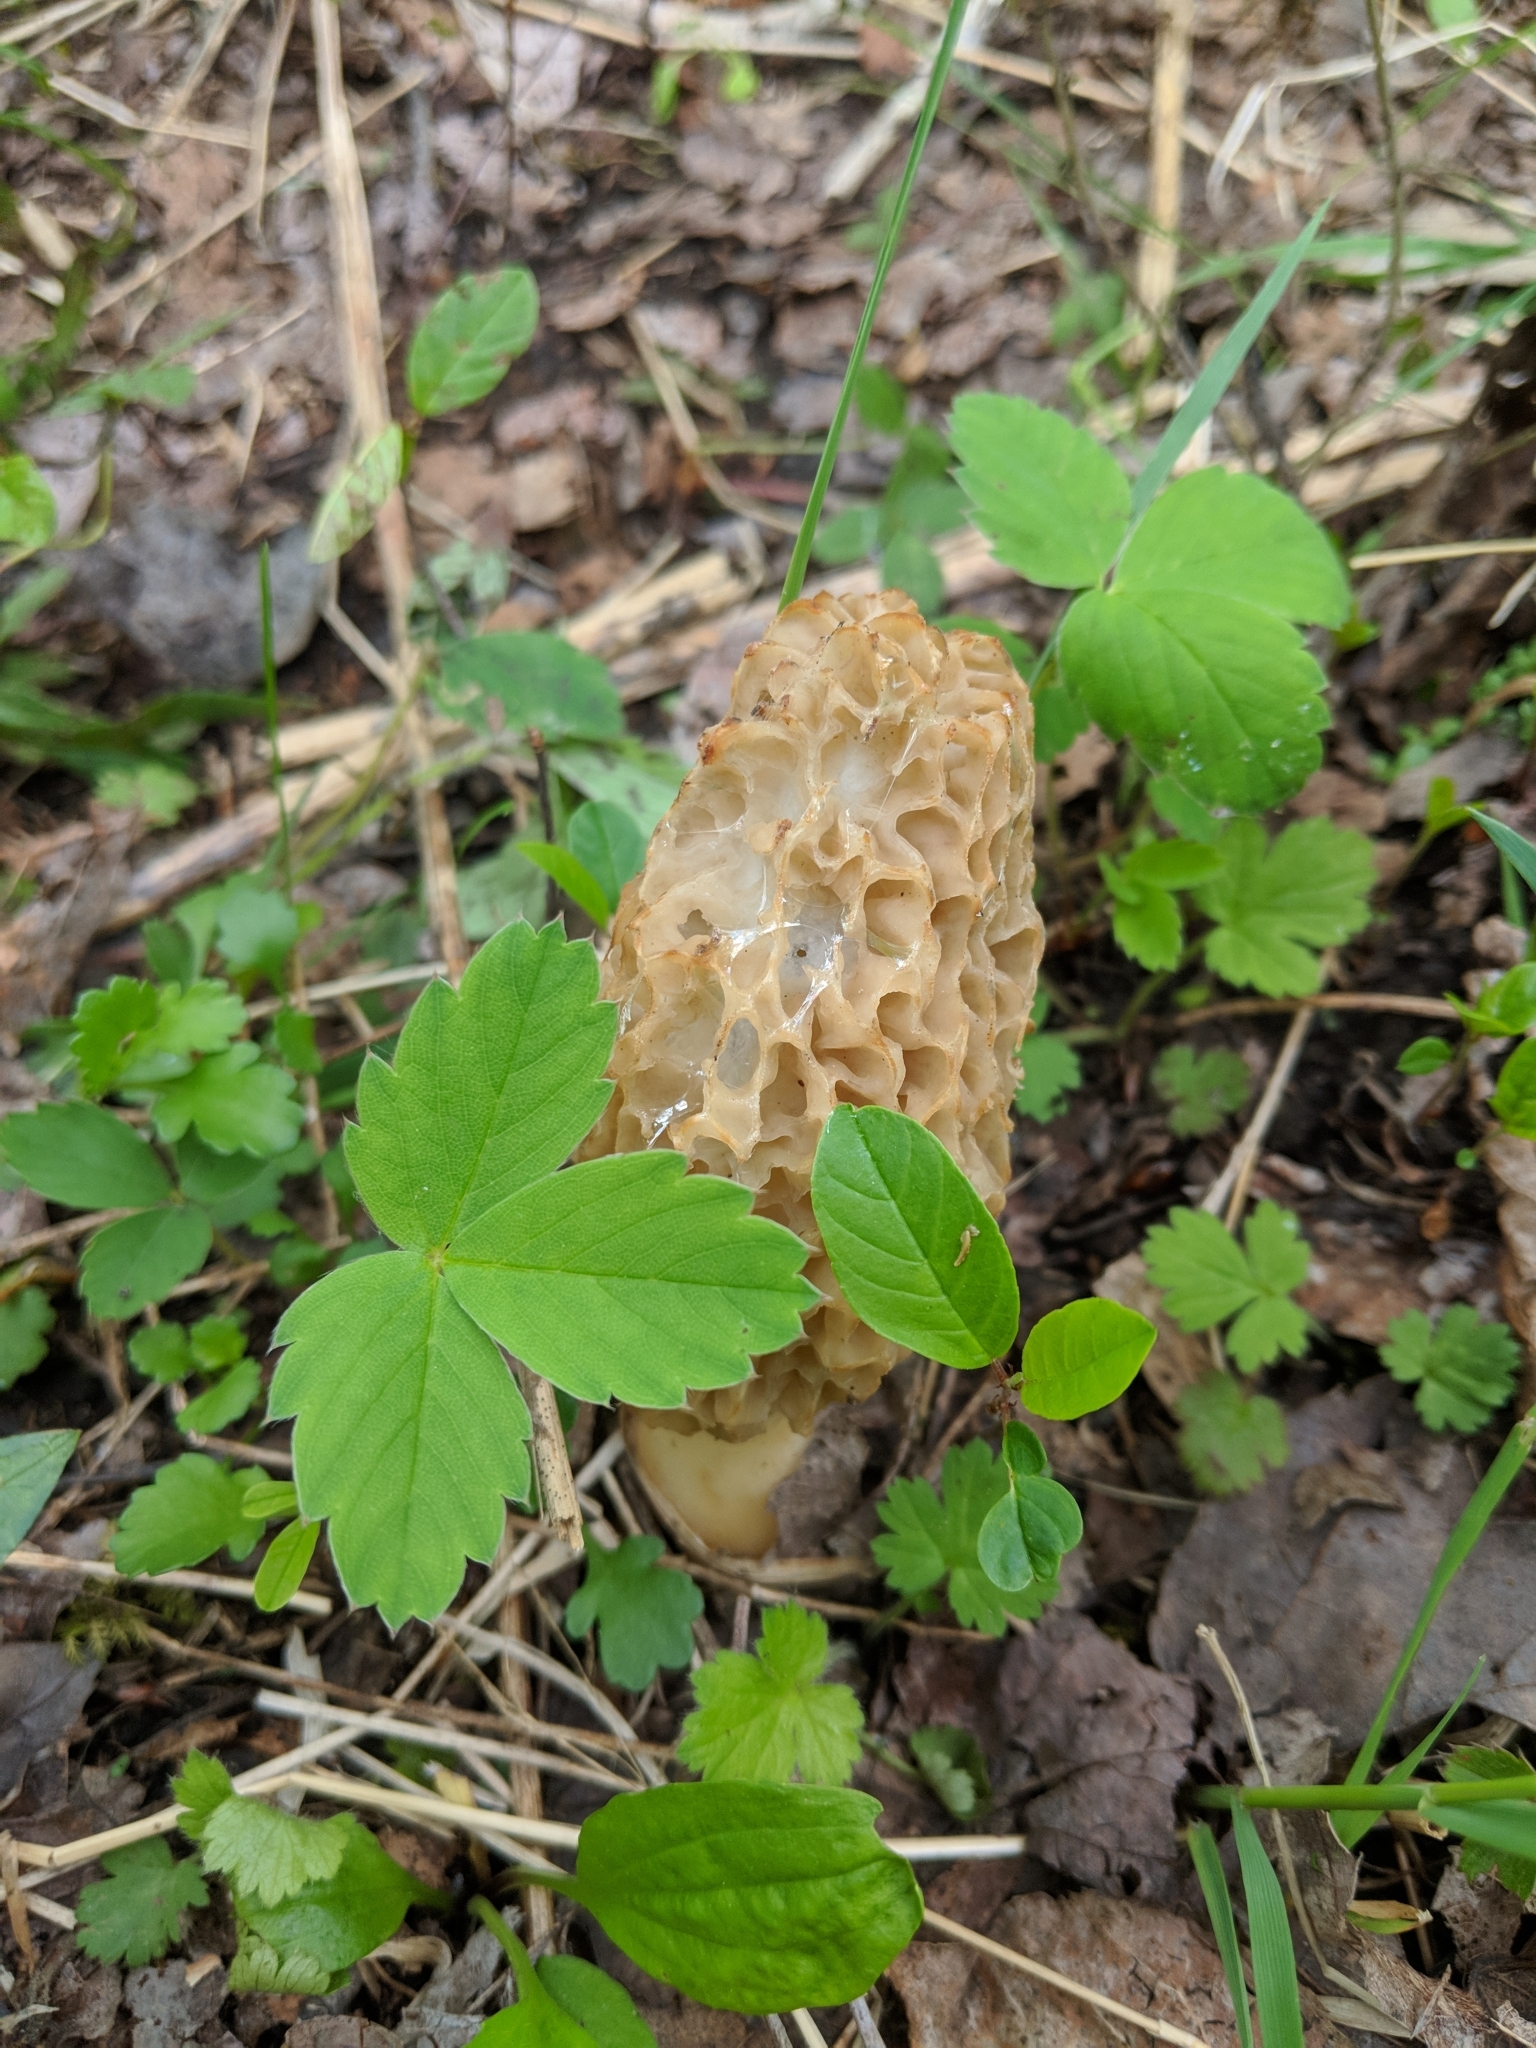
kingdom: Fungi
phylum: Ascomycota
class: Pezizomycetes
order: Pezizales
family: Morchellaceae
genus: Morchella
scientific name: Morchella americana
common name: White morel
